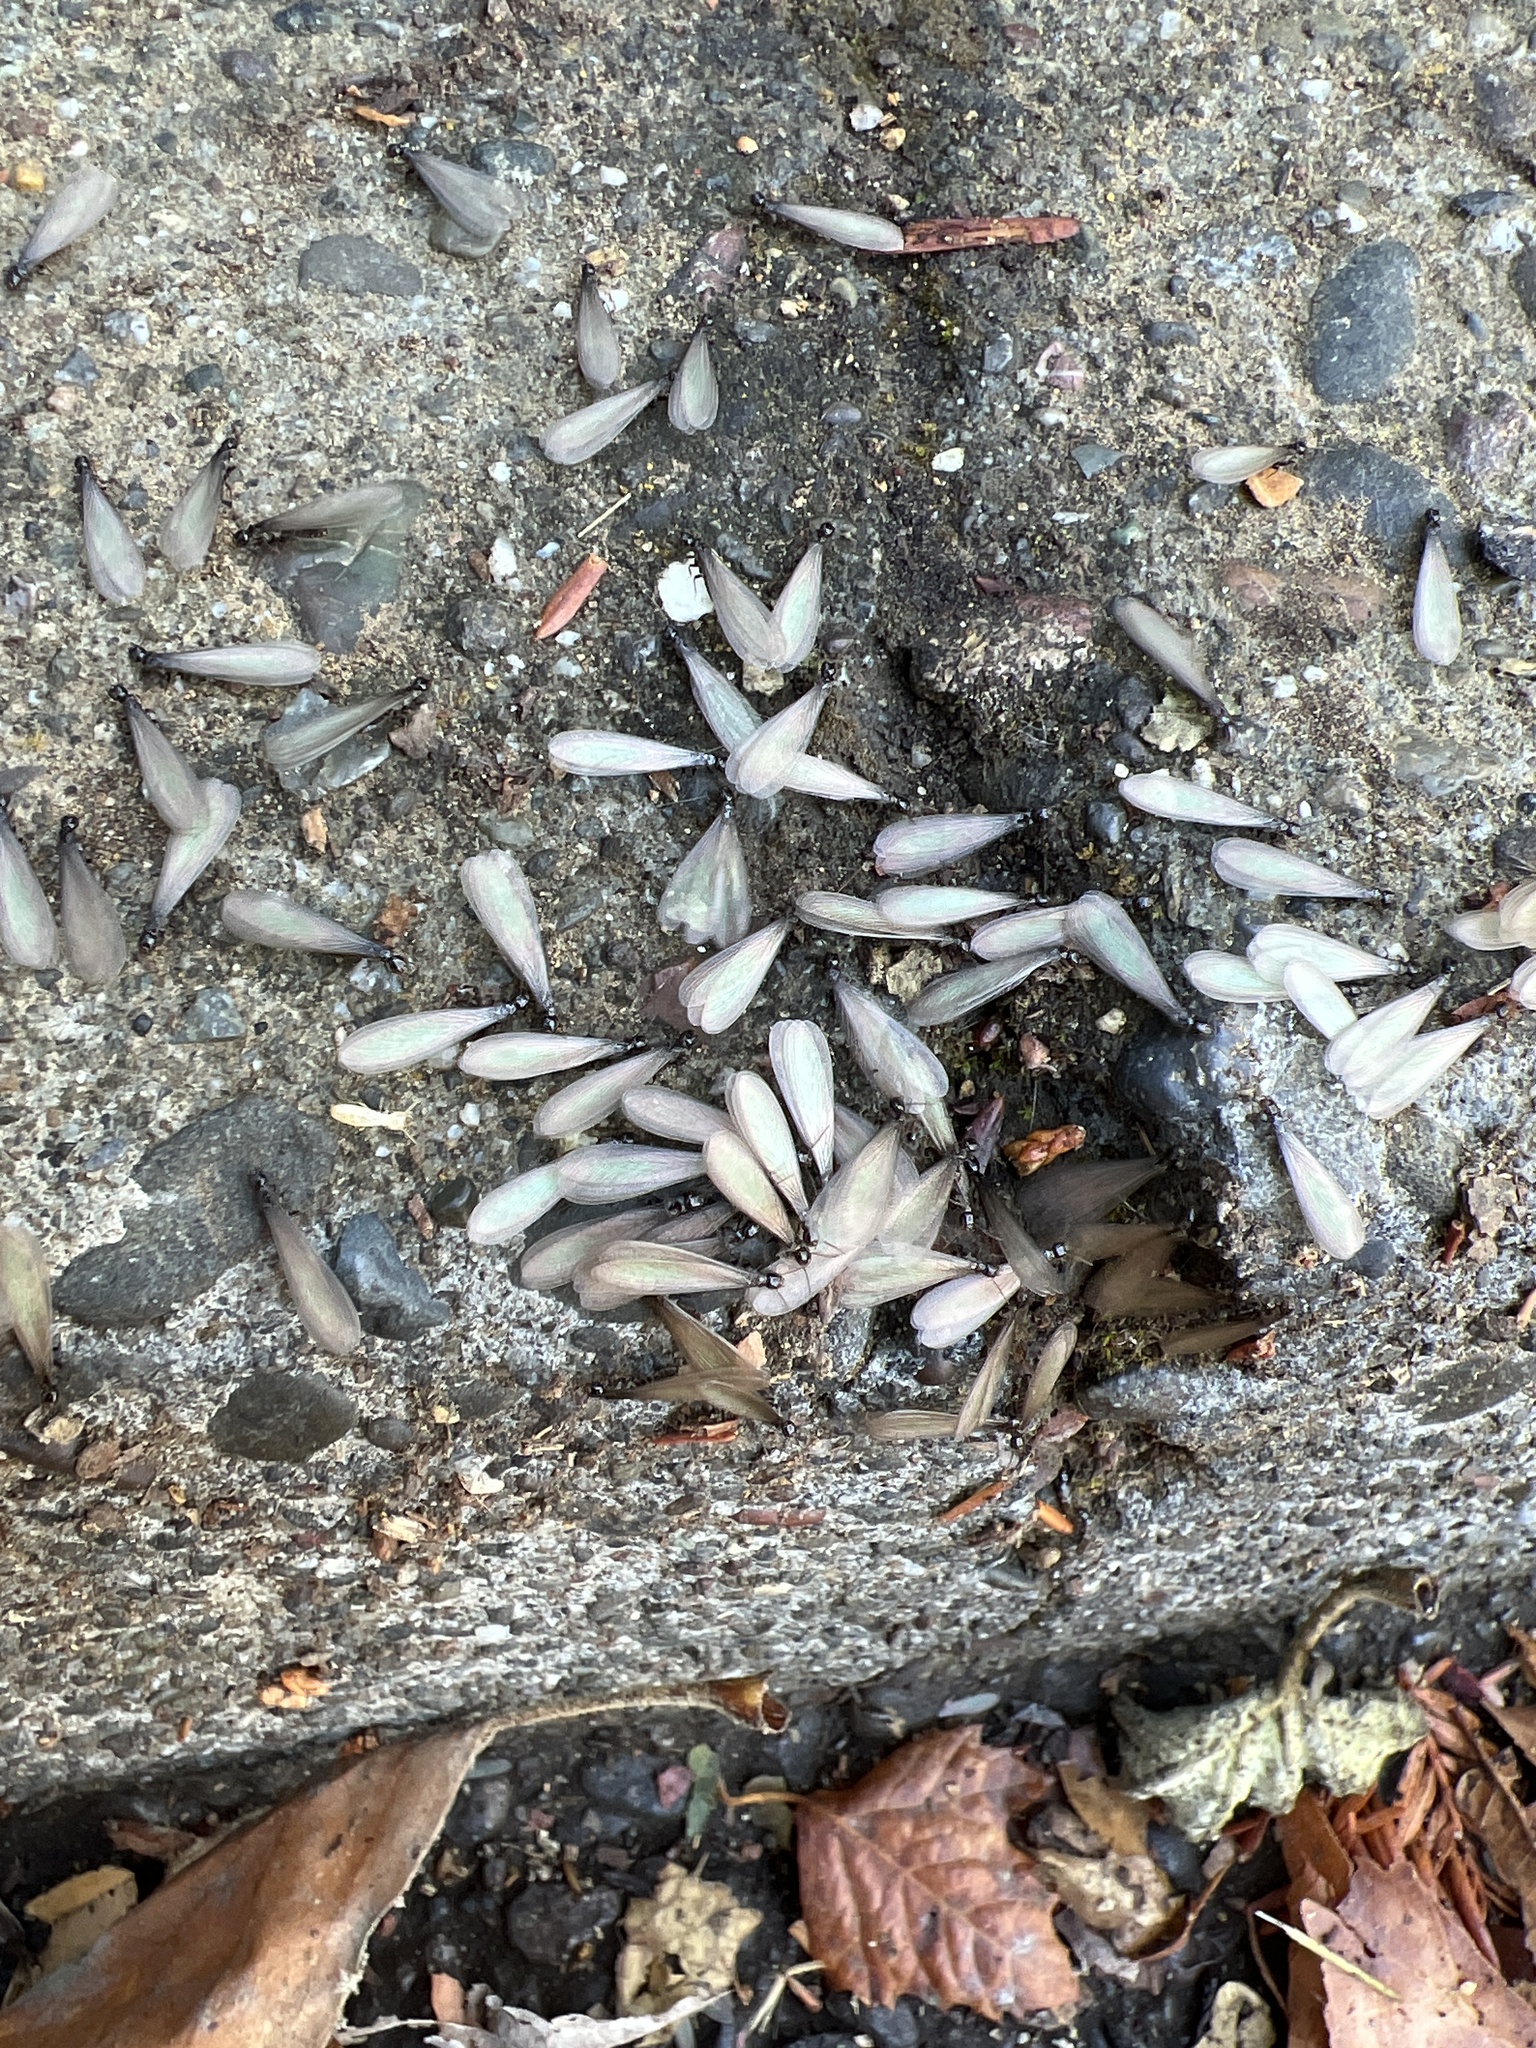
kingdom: Animalia
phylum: Arthropoda
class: Insecta
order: Blattodea
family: Rhinotermitidae
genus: Reticulitermes
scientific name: Reticulitermes
